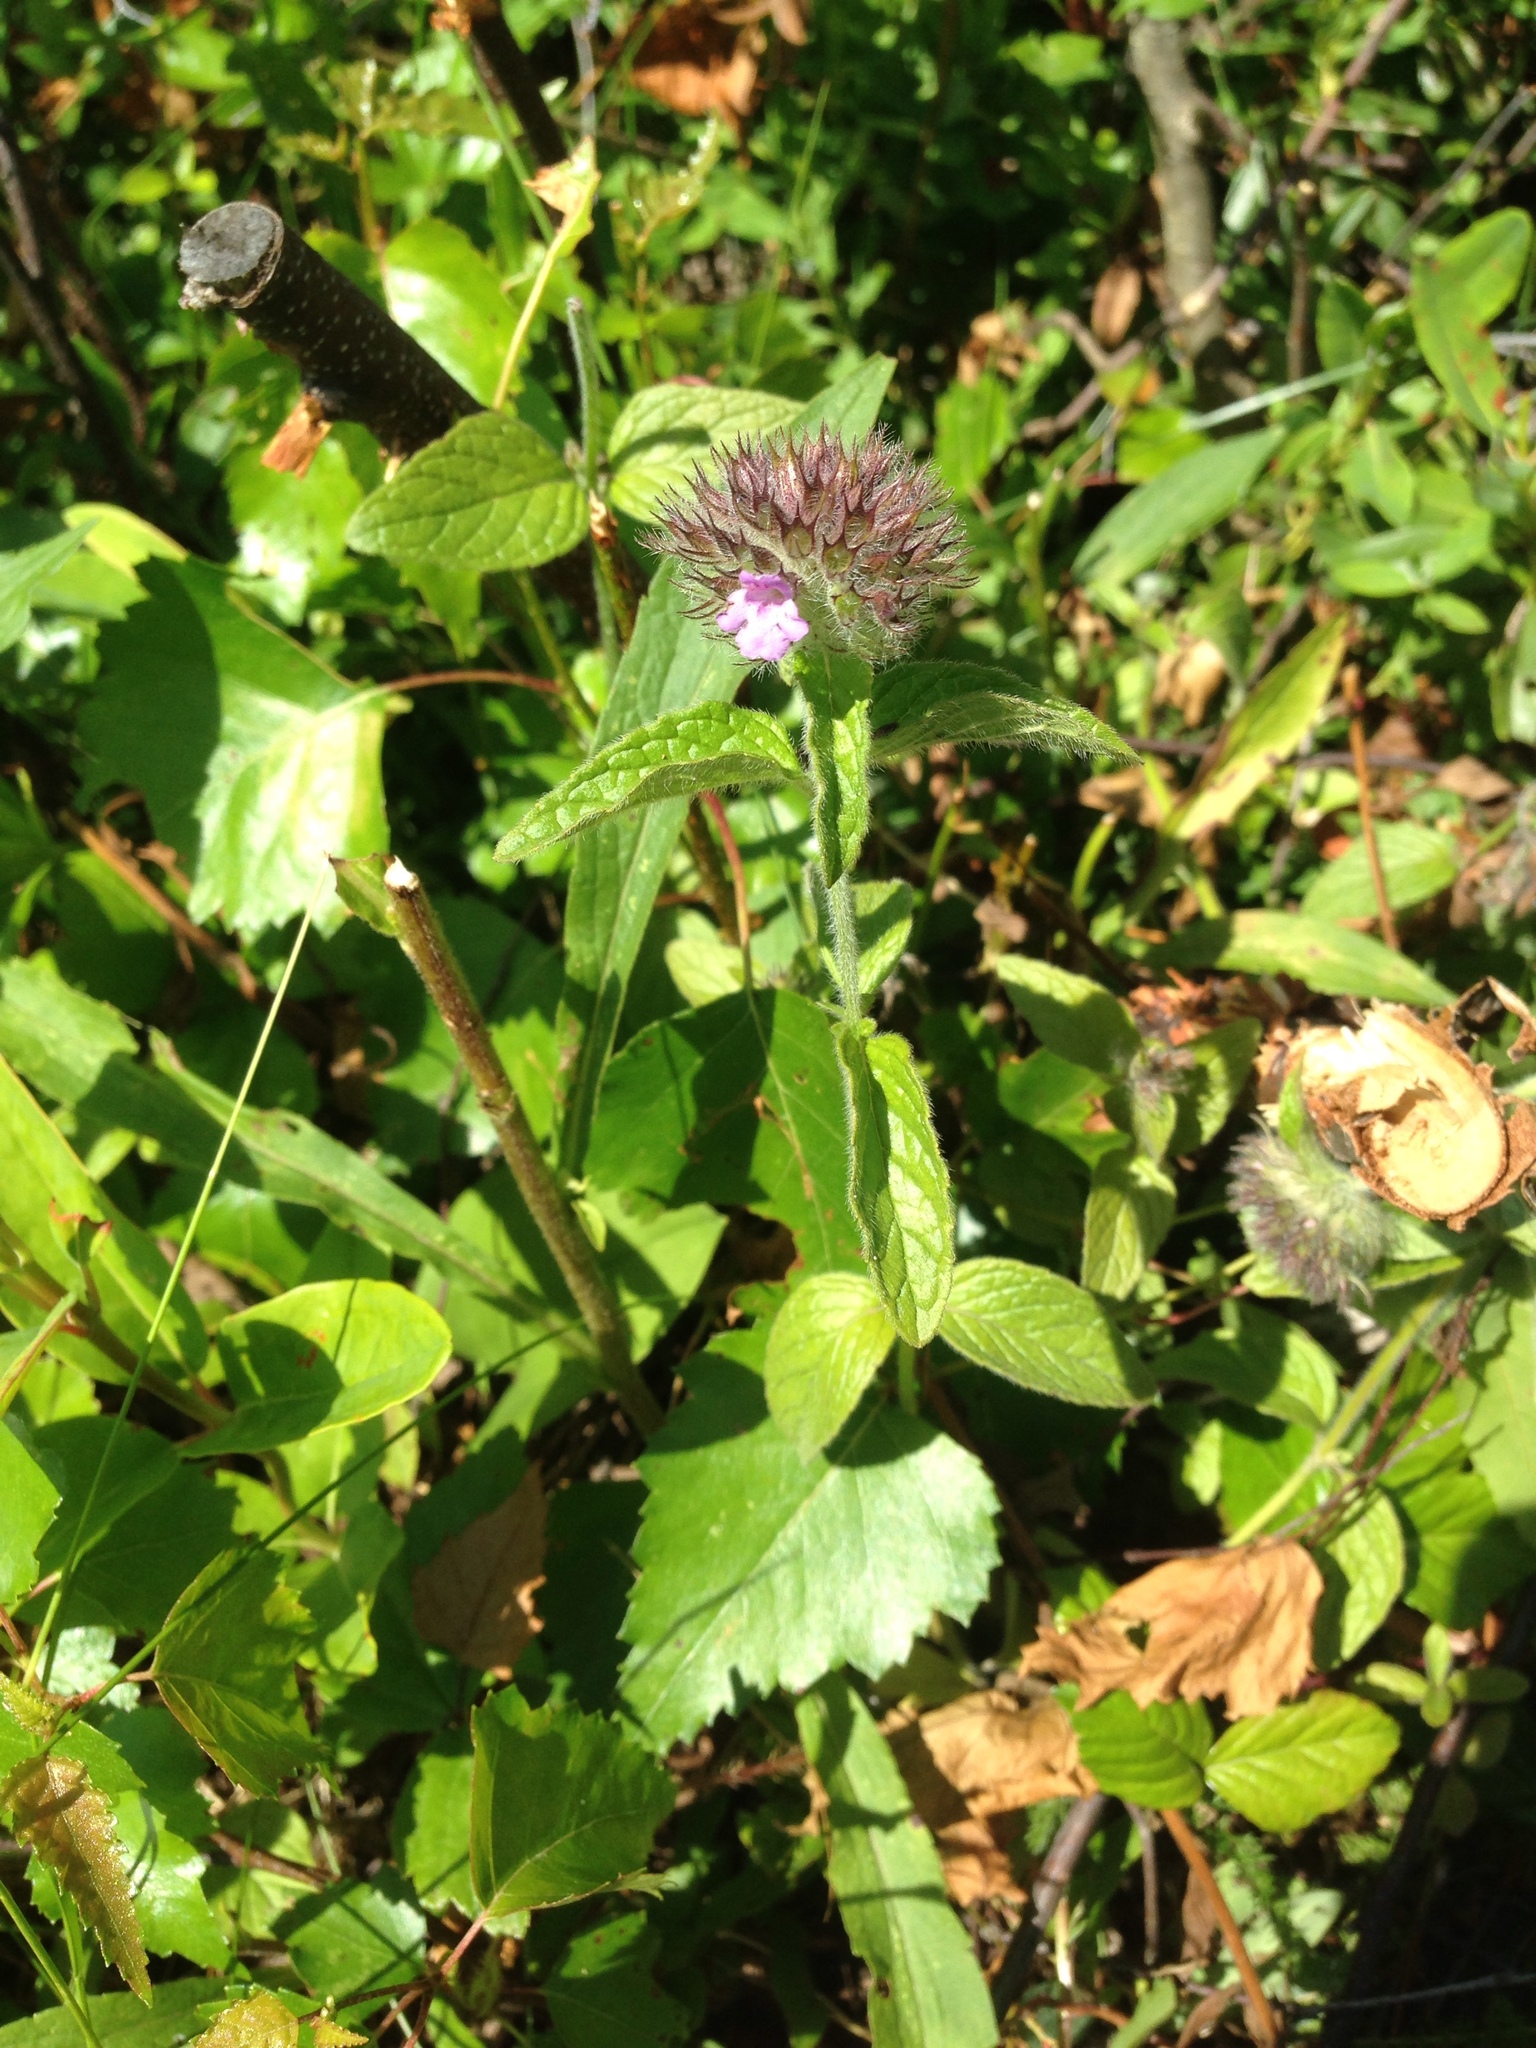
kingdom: Plantae
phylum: Tracheophyta
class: Magnoliopsida
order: Lamiales
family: Lamiaceae
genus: Clinopodium
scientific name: Clinopodium vulgare
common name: Wild basil
